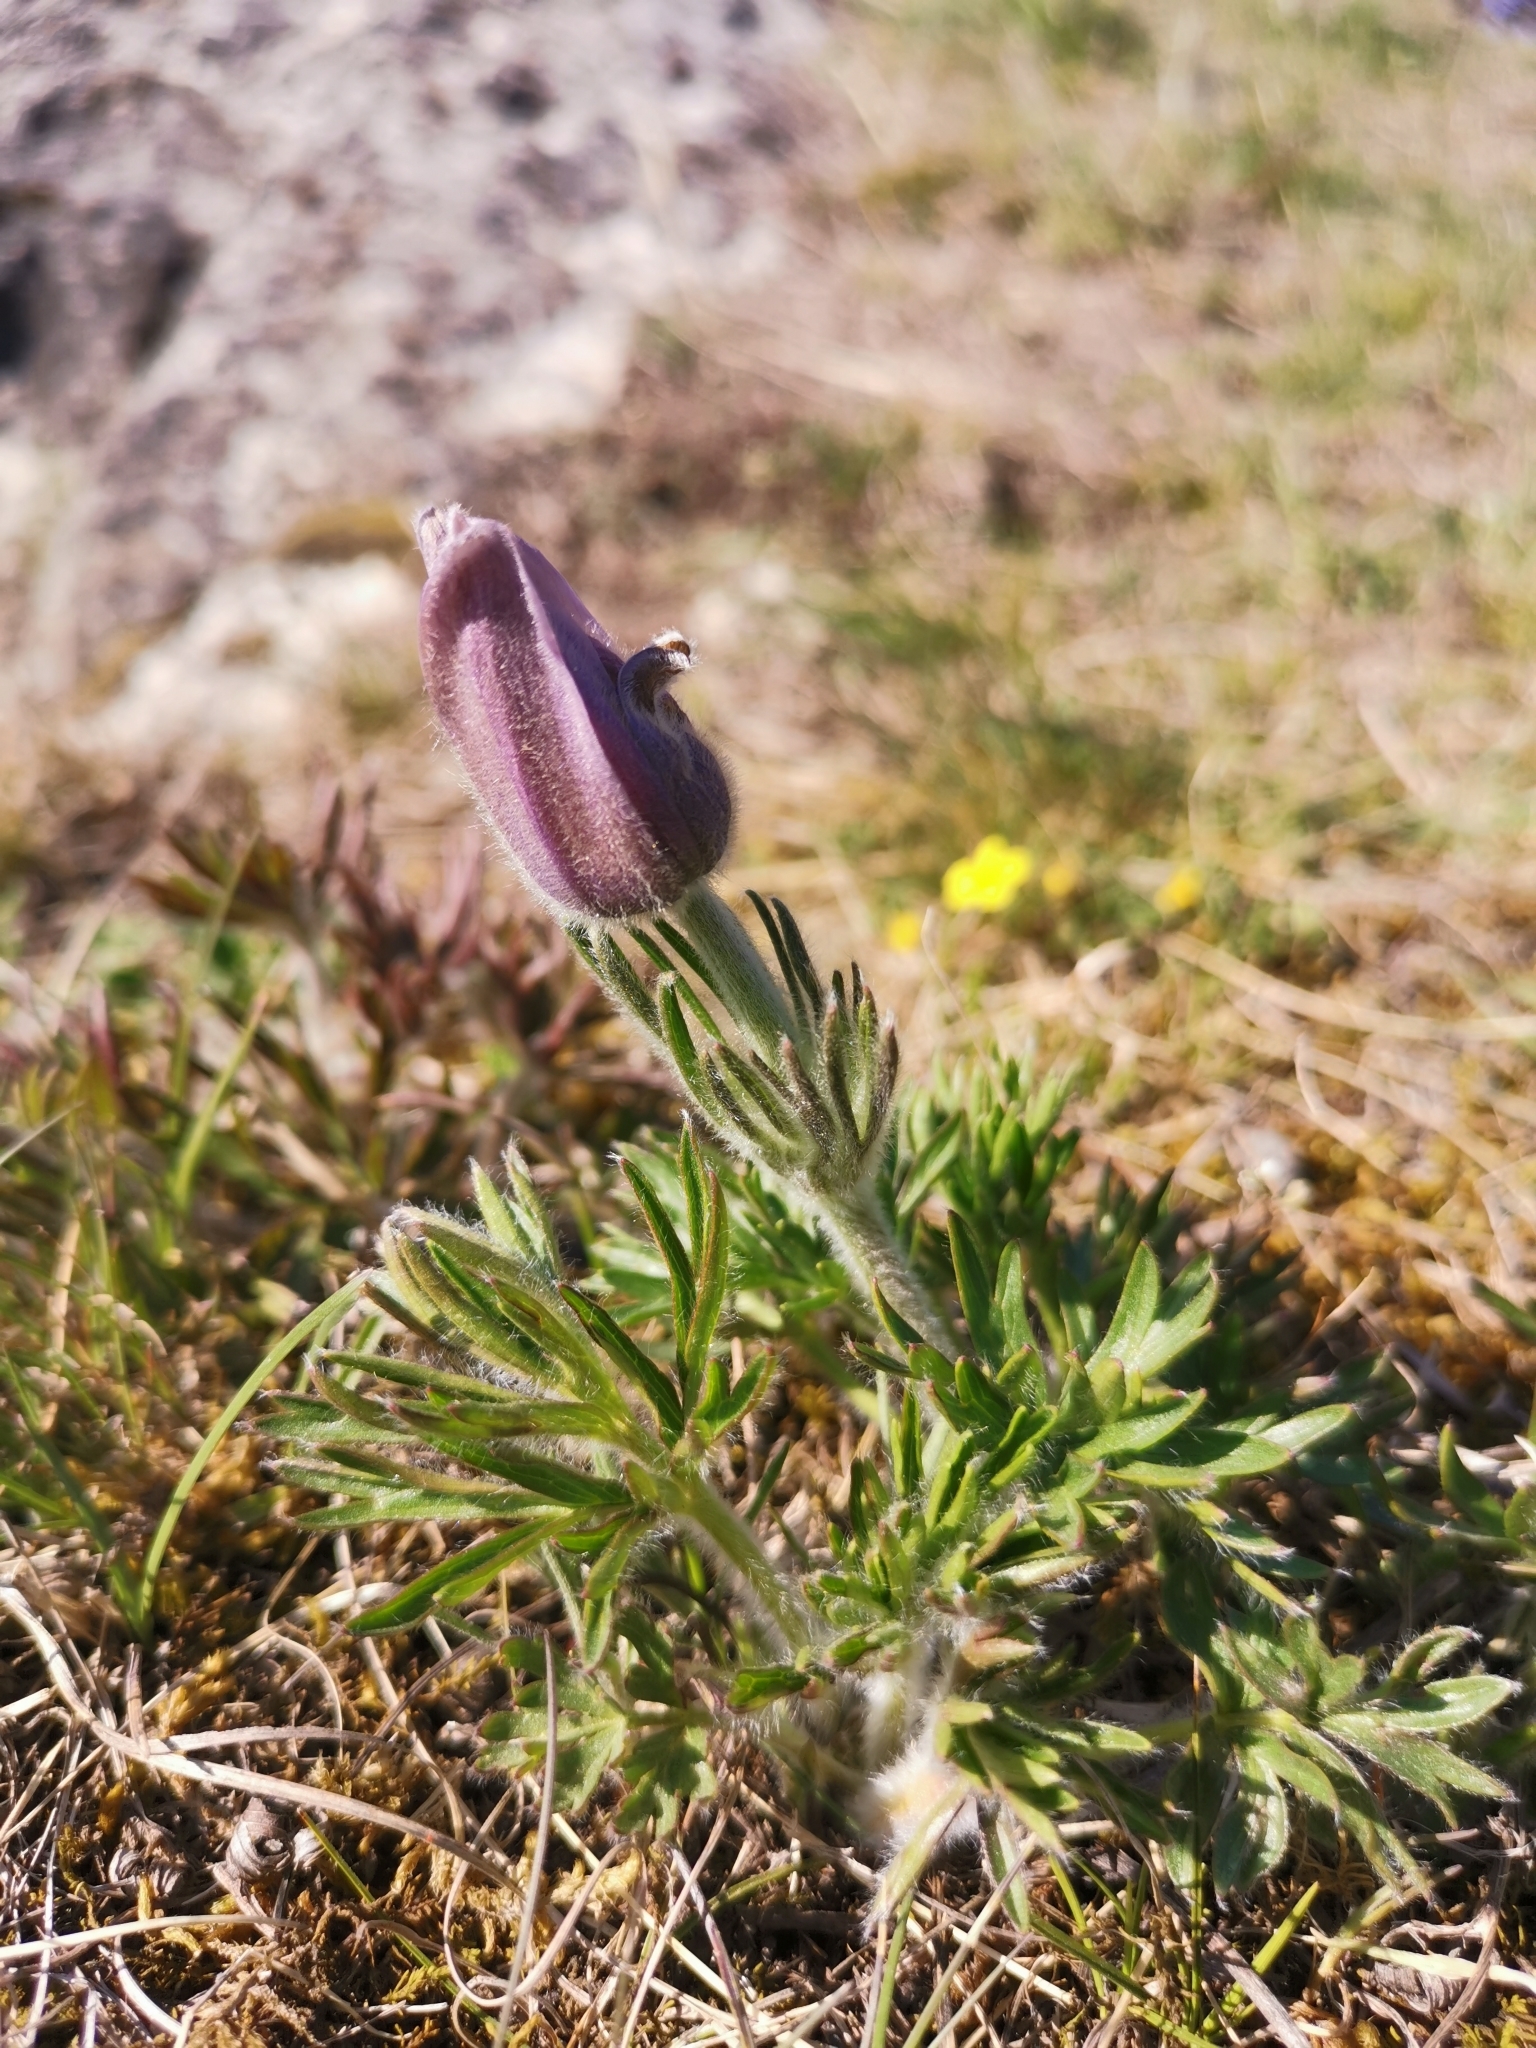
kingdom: Plantae
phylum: Tracheophyta
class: Magnoliopsida
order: Ranunculales
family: Ranunculaceae
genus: Pulsatilla
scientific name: Pulsatilla grandis
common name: Greater pasque flower
